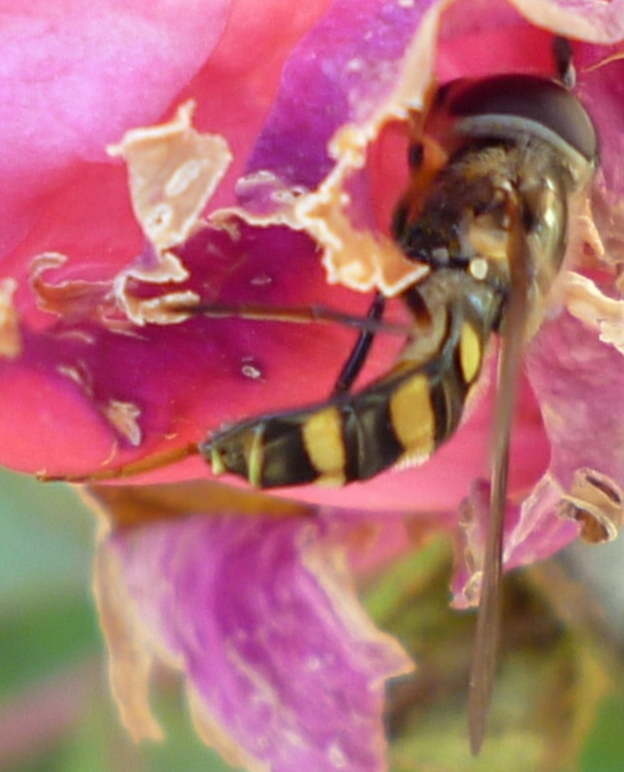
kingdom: Animalia
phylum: Arthropoda
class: Insecta
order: Diptera
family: Syrphidae
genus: Eupeodes
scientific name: Eupeodes
